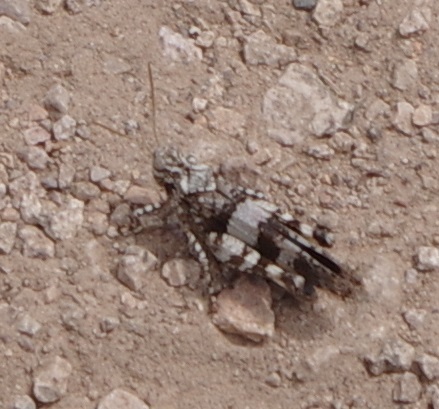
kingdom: Animalia
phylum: Arthropoda
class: Insecta
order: Orthoptera
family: Acrididae
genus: Oedipoda
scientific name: Oedipoda caerulescens
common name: Blue-winged grasshopper
